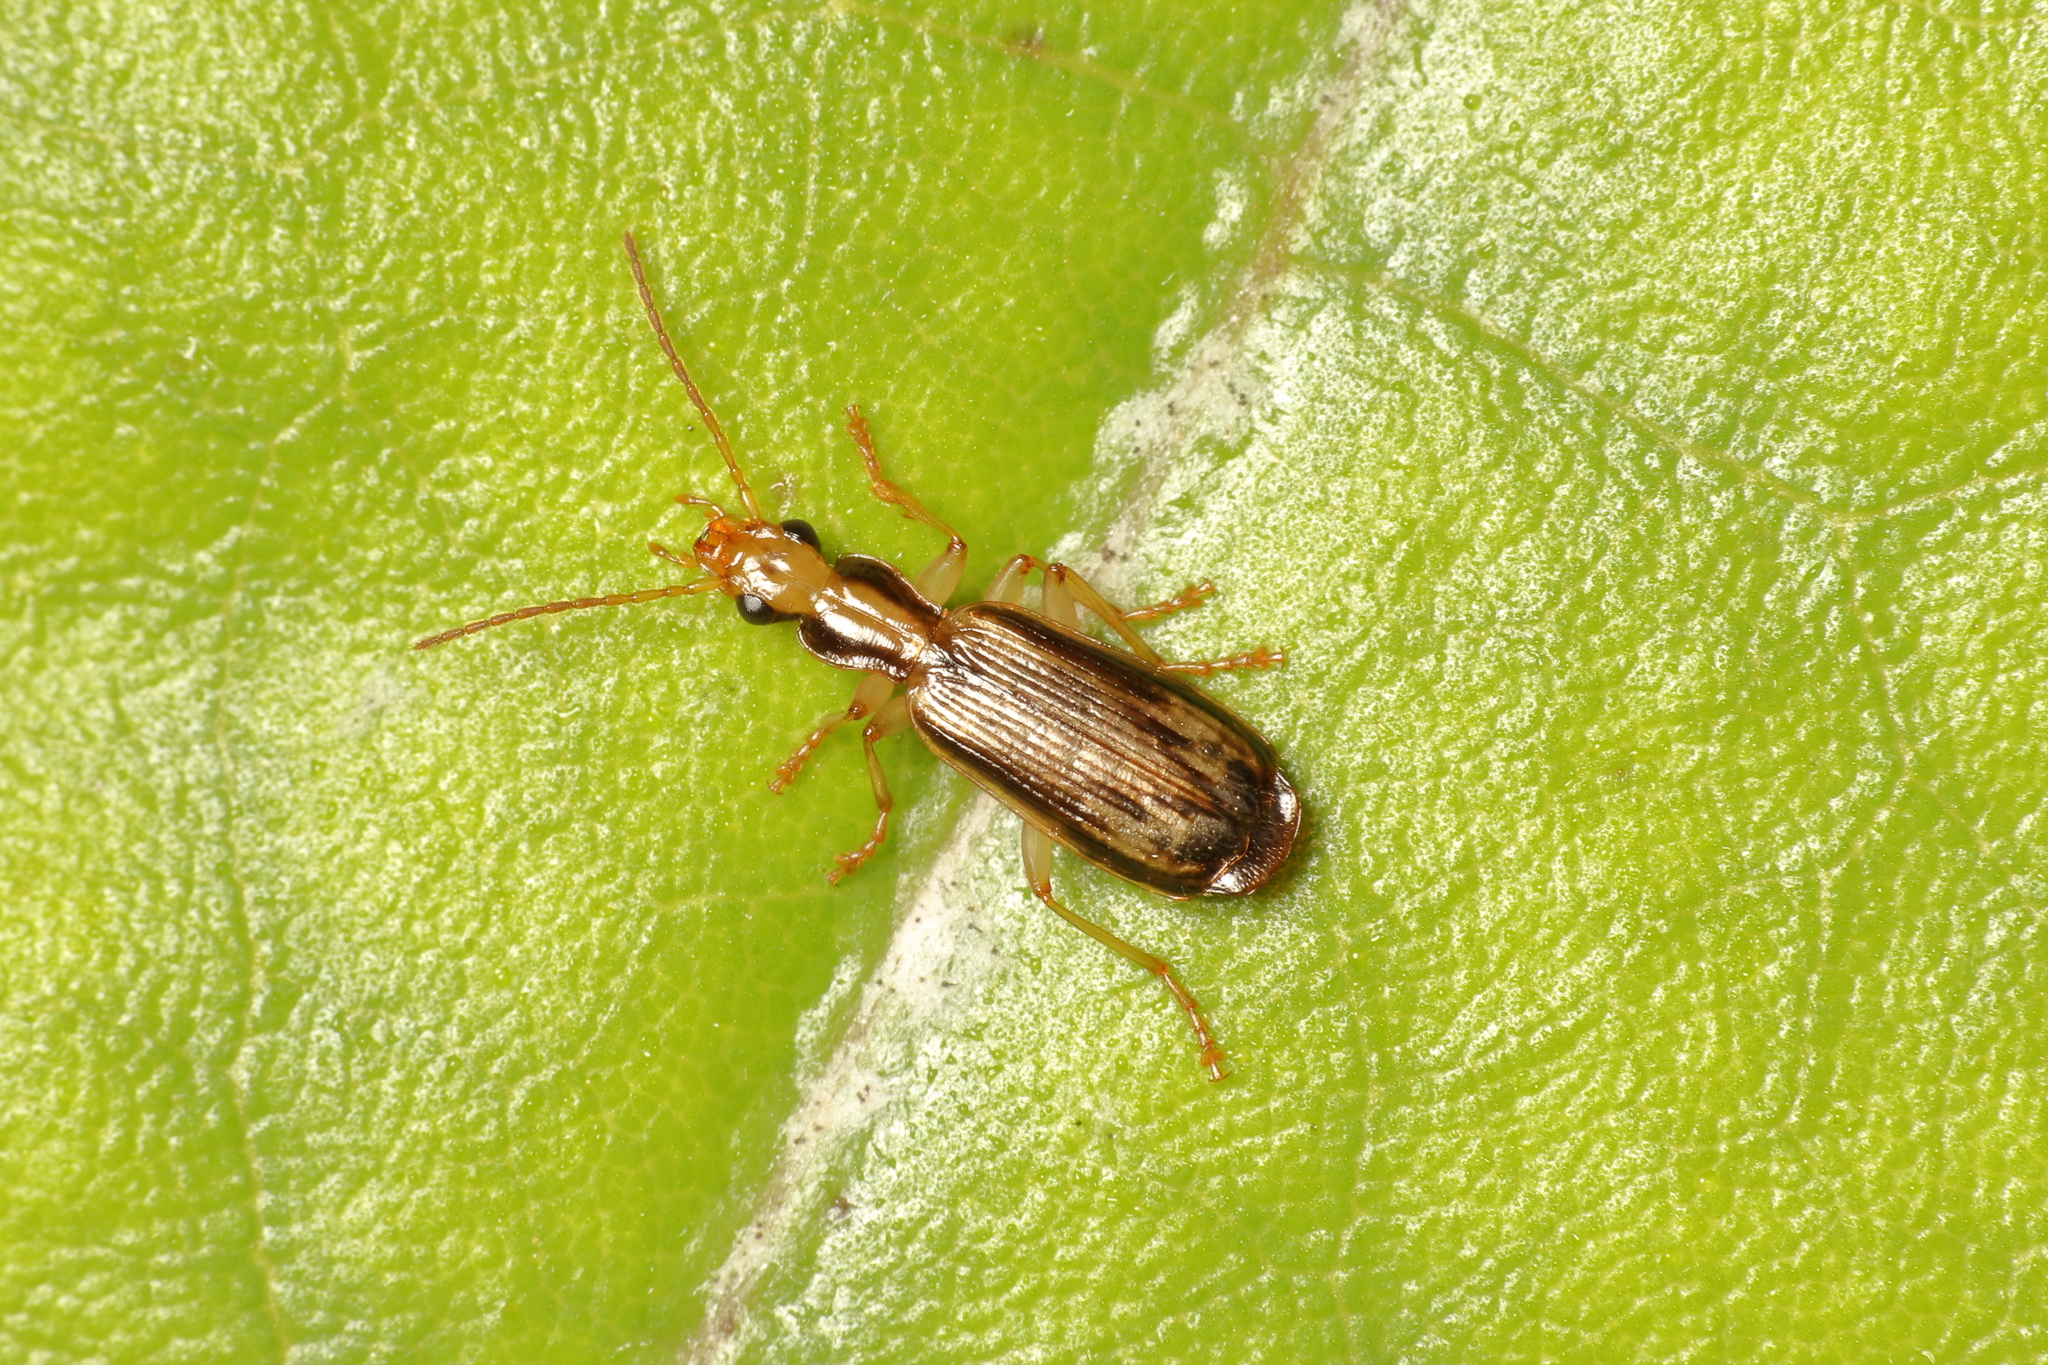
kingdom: Animalia
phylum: Arthropoda
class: Insecta
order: Coleoptera
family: Carabidae
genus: Demetrida
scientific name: Demetrida lineella
